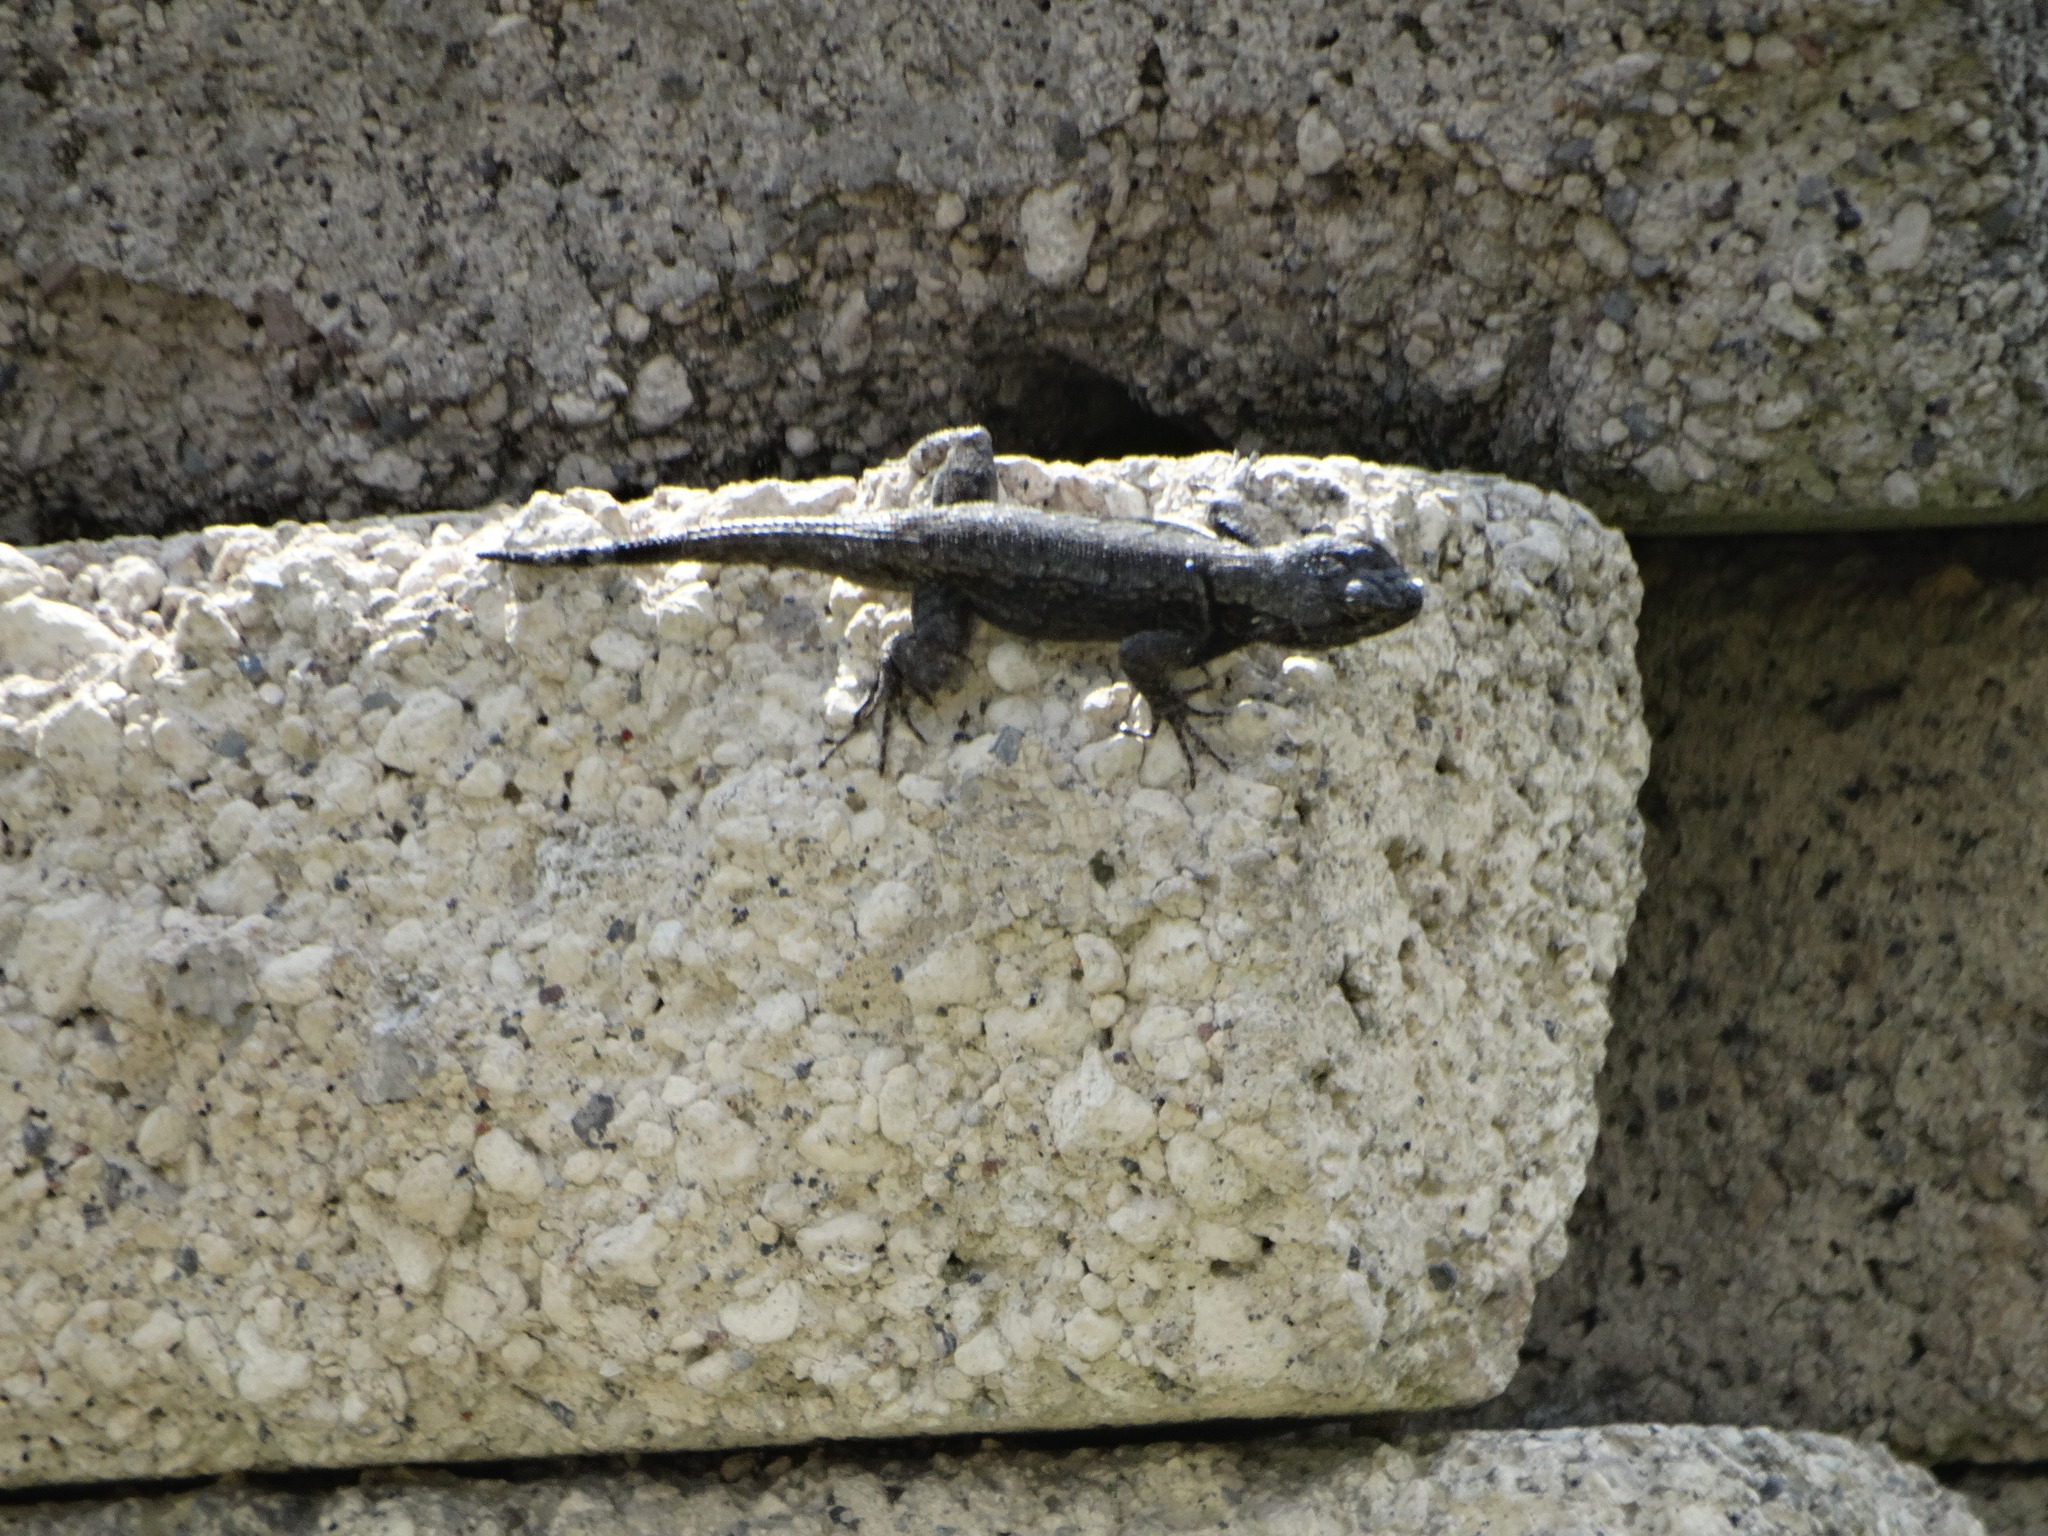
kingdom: Animalia
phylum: Chordata
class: Squamata
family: Phrynosomatidae
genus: Sceloporus
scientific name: Sceloporus grammicus
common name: Mesquite lizard
